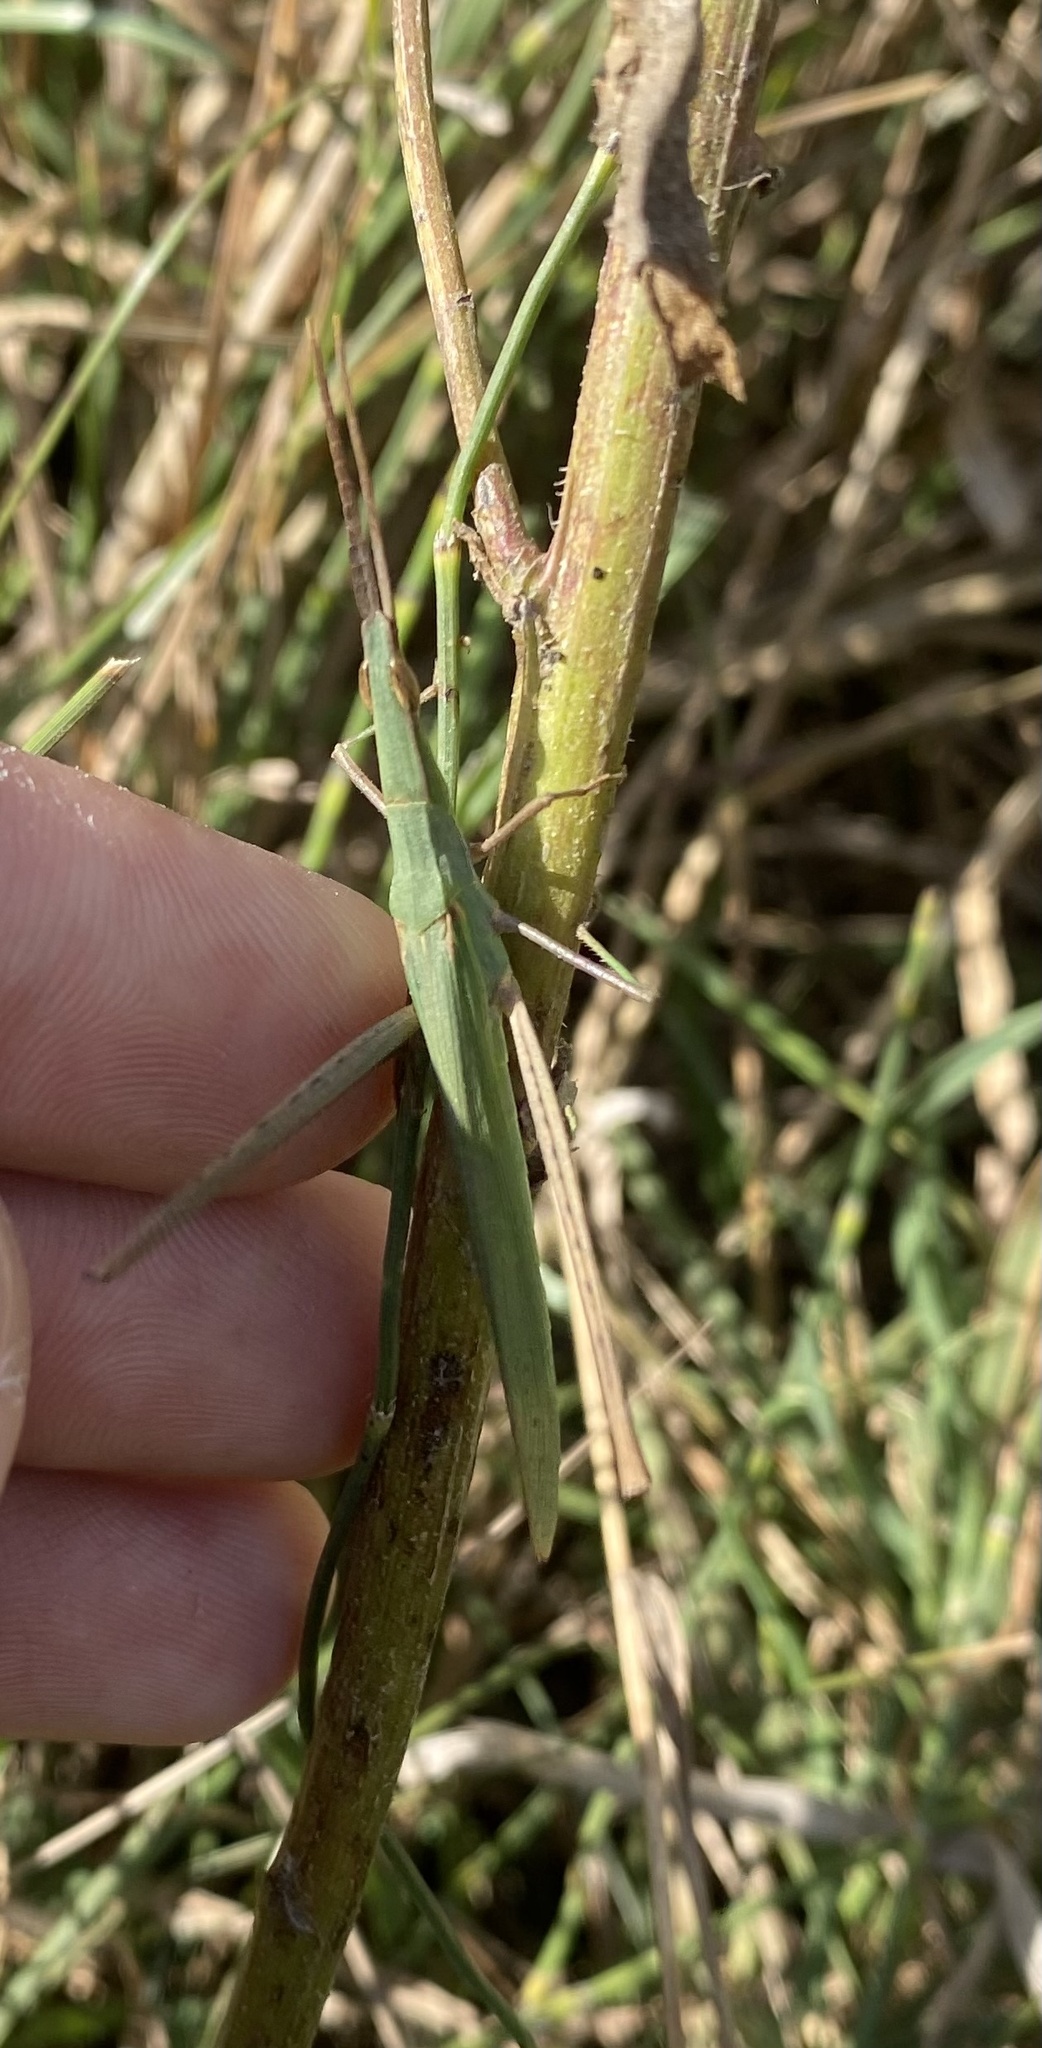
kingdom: Animalia
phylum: Arthropoda
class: Insecta
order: Orthoptera
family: Acrididae
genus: Acrida
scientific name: Acrida
